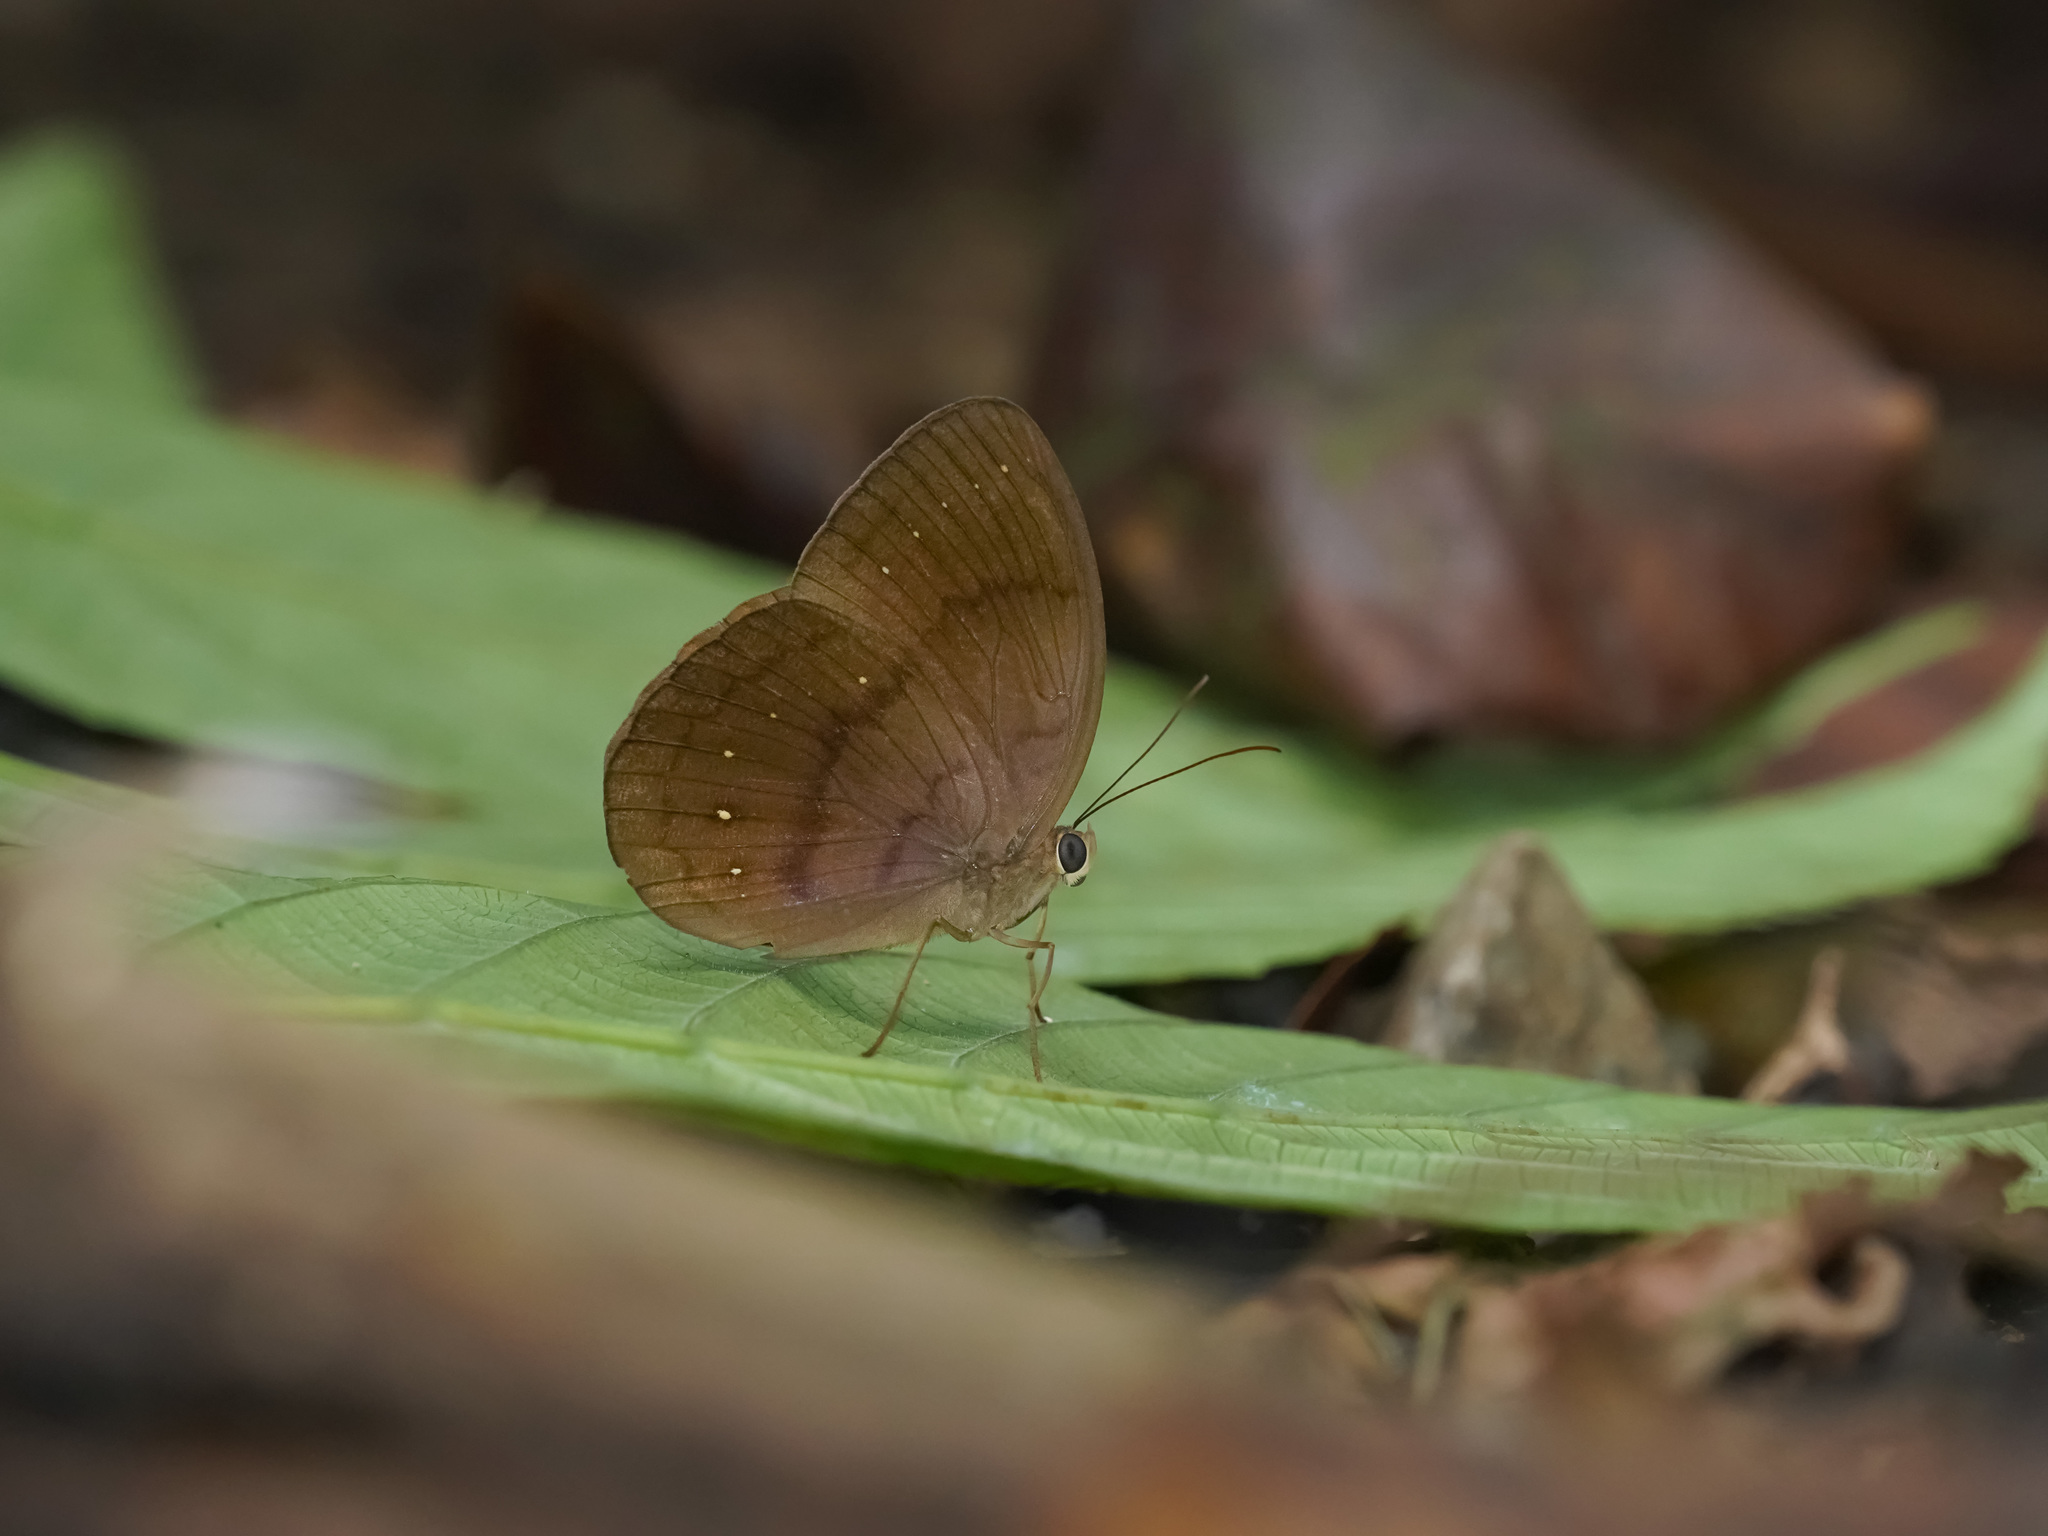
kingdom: Animalia
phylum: Arthropoda
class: Insecta
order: Lepidoptera
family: Nymphalidae
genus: Faunis
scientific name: Faunis canens
